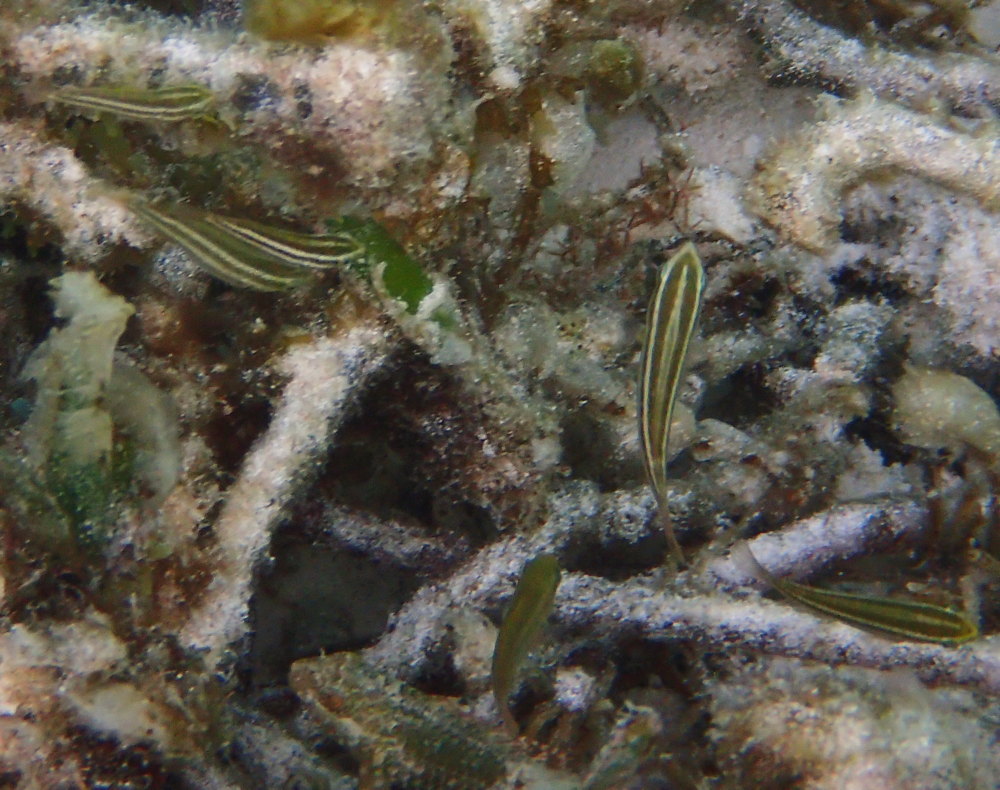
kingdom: Animalia
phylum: Chordata
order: Perciformes
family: Scaridae
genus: Scarus
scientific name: Scarus
